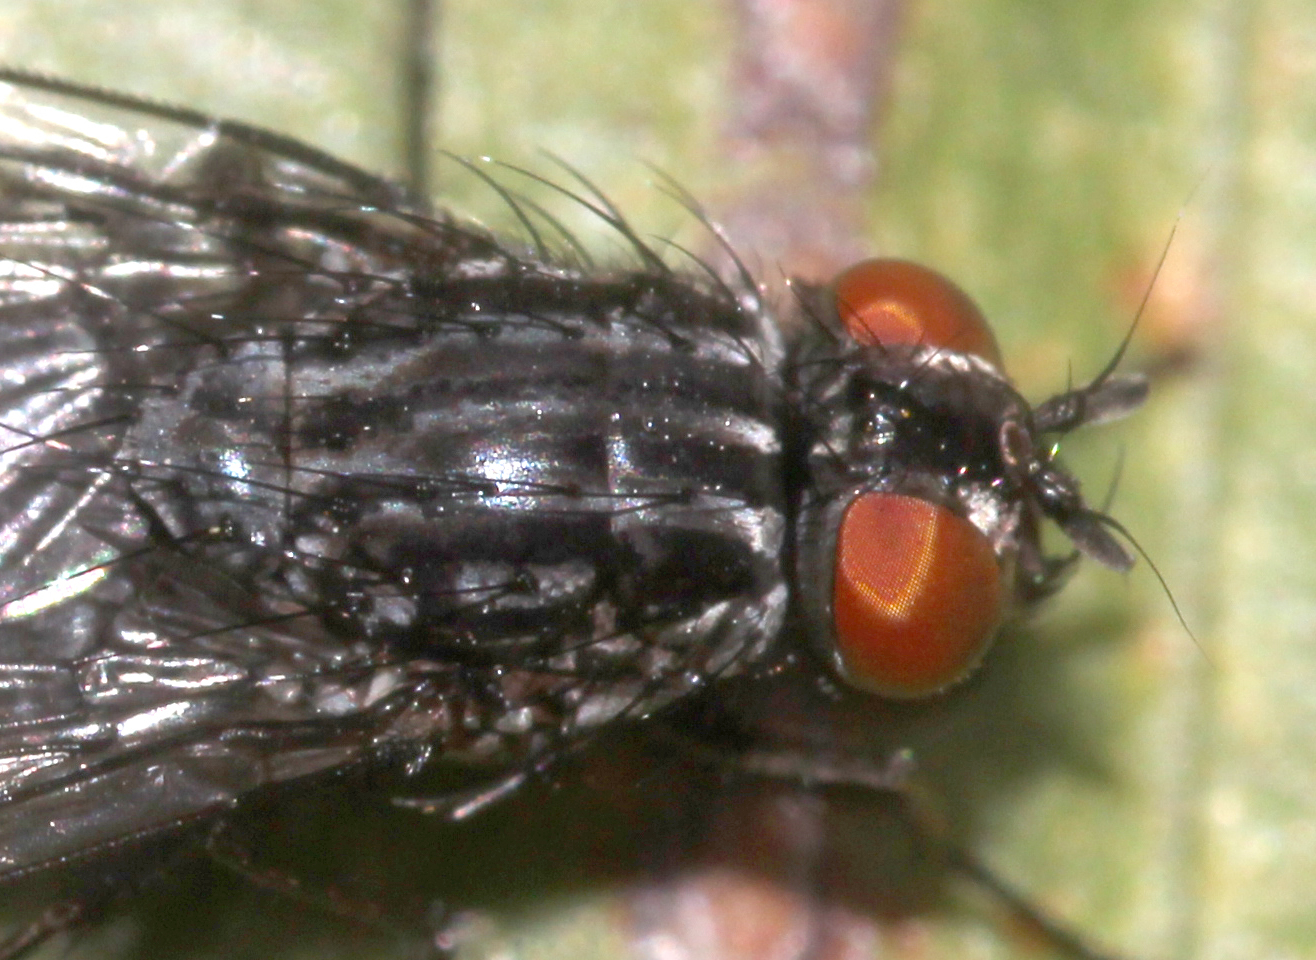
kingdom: Animalia
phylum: Arthropoda
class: Insecta
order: Diptera
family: Muscidae
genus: Neurotrixa
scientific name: Neurotrixa felsina
